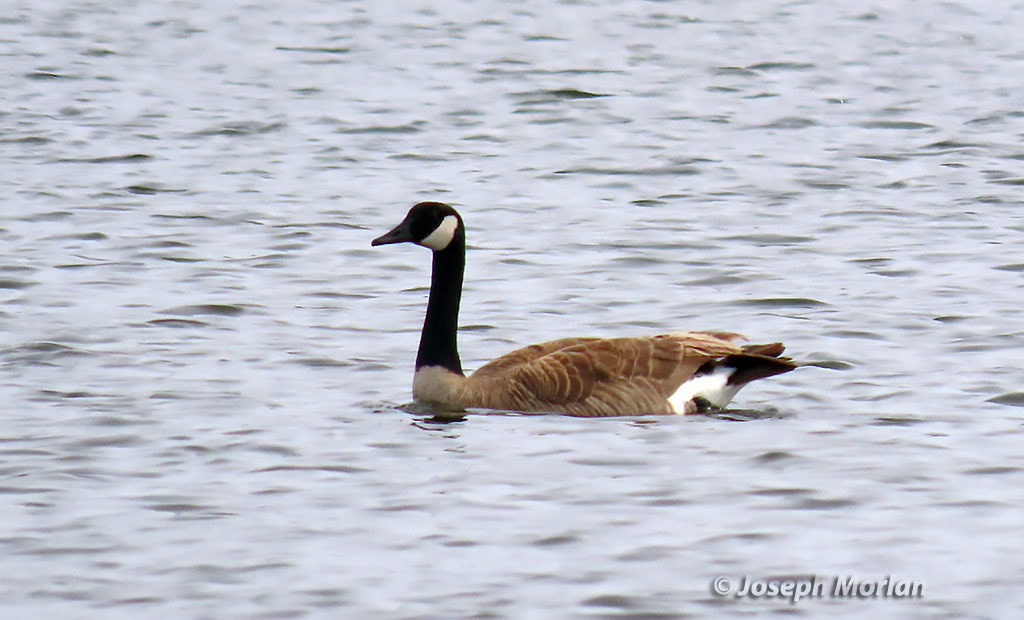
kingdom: Animalia
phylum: Chordata
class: Aves
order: Anseriformes
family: Anatidae
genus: Branta
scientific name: Branta canadensis
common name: Canada goose
